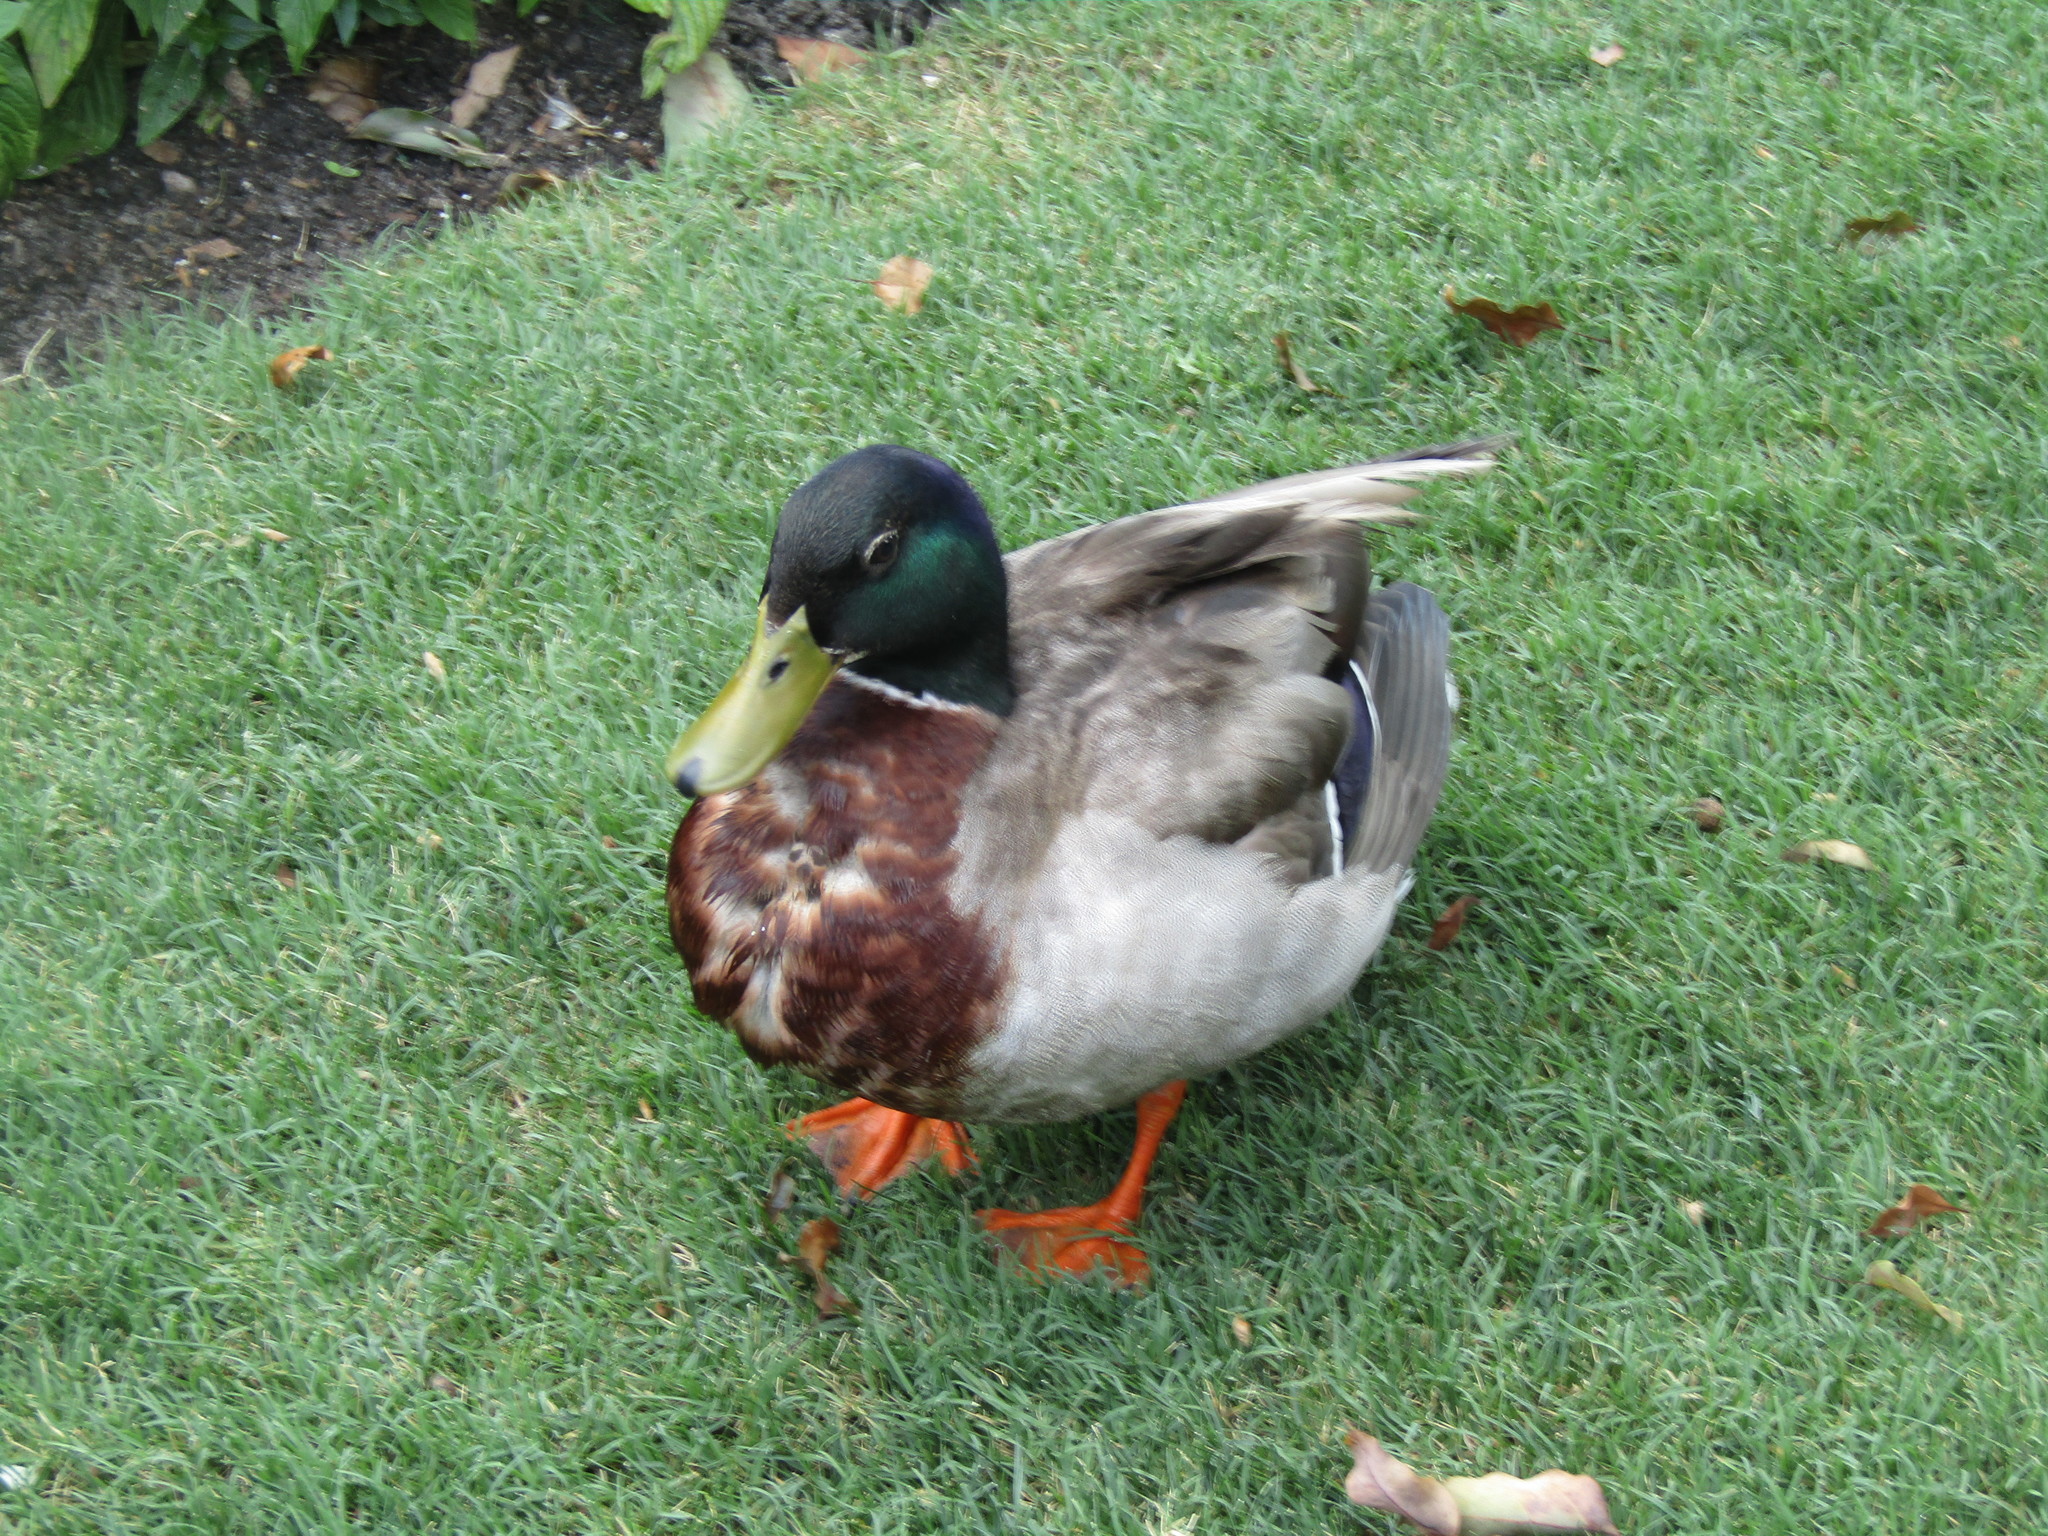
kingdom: Animalia
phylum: Chordata
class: Aves
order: Anseriformes
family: Anatidae
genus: Anas
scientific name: Anas platyrhynchos
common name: Mallard
